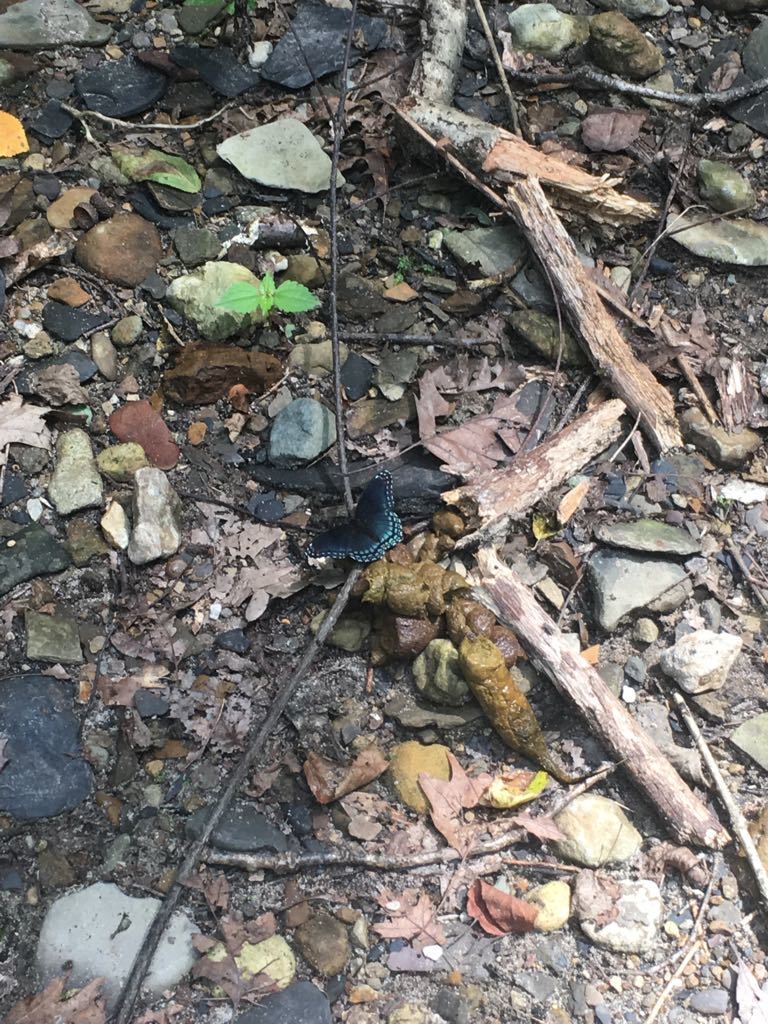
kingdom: Animalia
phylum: Arthropoda
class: Insecta
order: Lepidoptera
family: Nymphalidae
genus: Limenitis
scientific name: Limenitis astyanax
